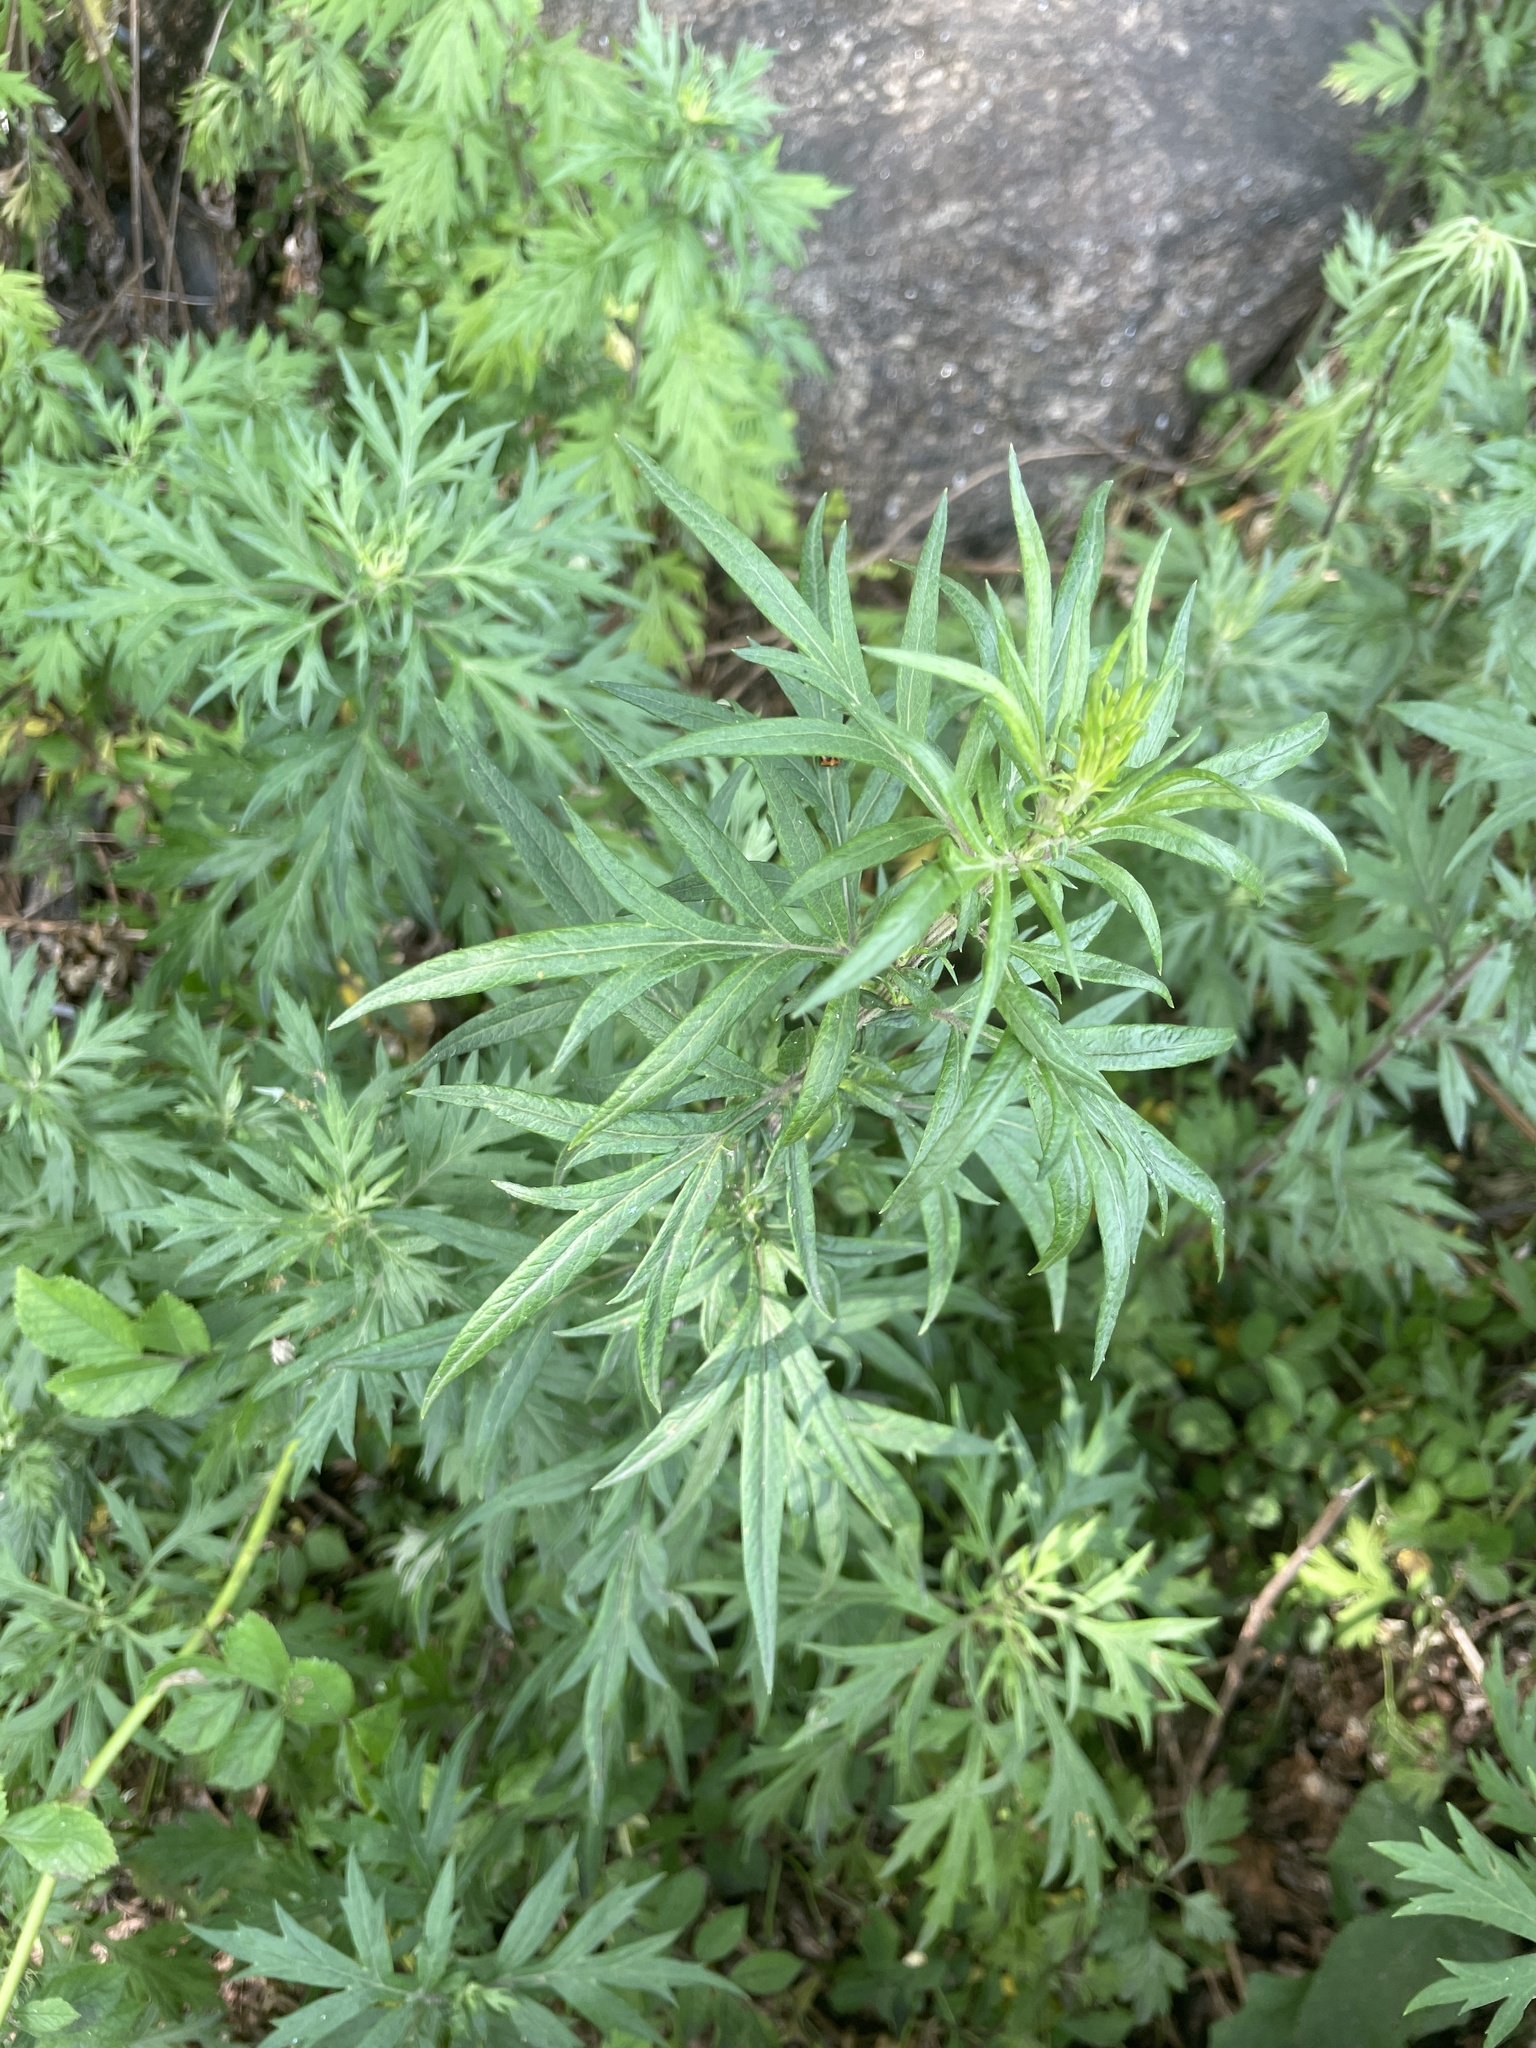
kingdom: Plantae
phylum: Tracheophyta
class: Magnoliopsida
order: Asterales
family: Asteraceae
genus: Artemisia
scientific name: Artemisia vulgaris
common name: Mugwort
